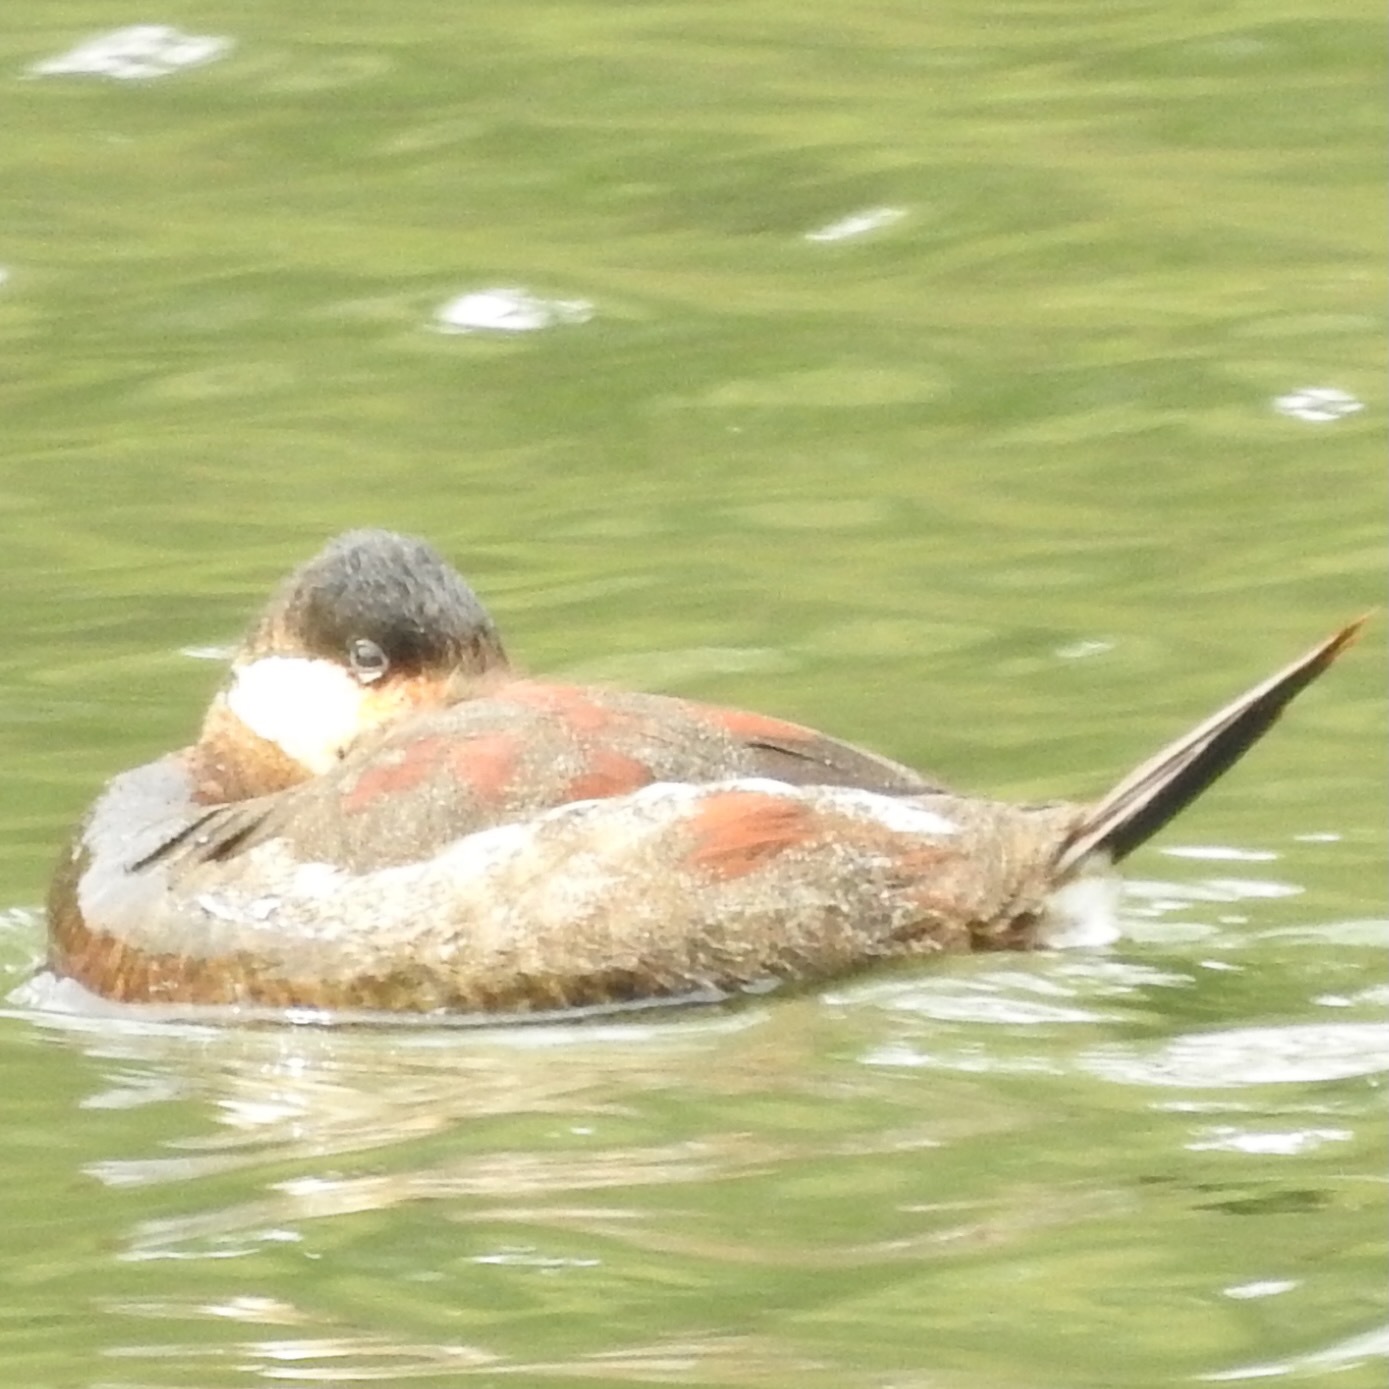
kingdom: Animalia
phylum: Chordata
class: Aves
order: Anseriformes
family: Anatidae
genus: Oxyura
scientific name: Oxyura jamaicensis
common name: Ruddy duck
